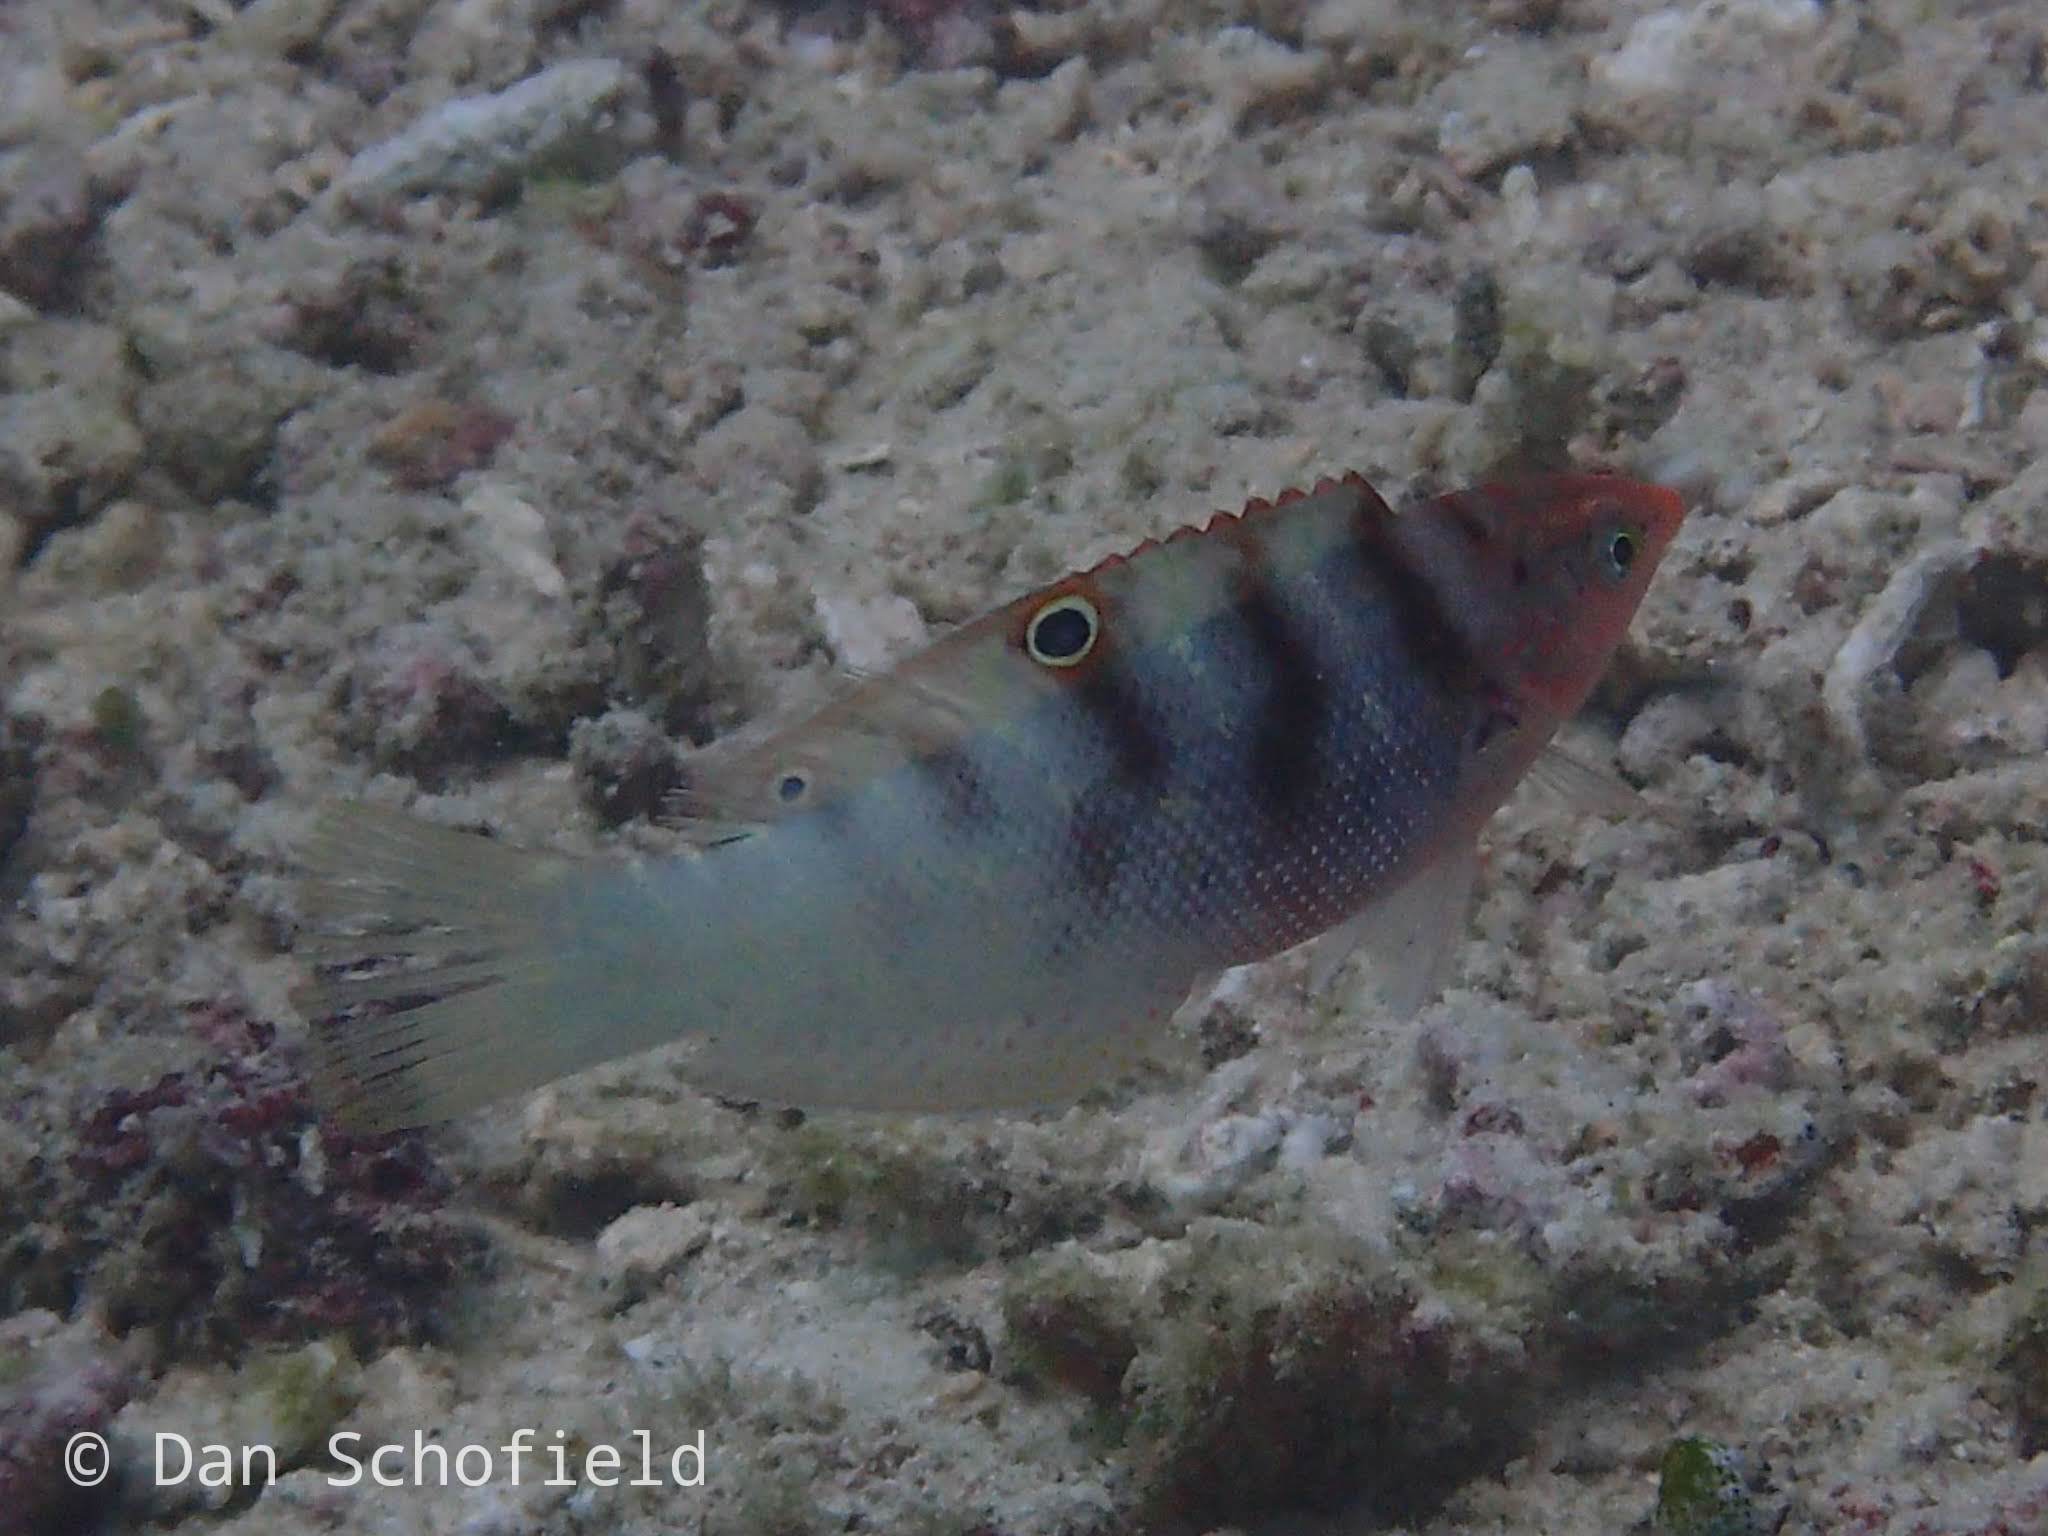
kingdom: Animalia
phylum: Chordata
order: Perciformes
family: Labridae
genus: Coris
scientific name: Coris batuensis
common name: Batu coris
